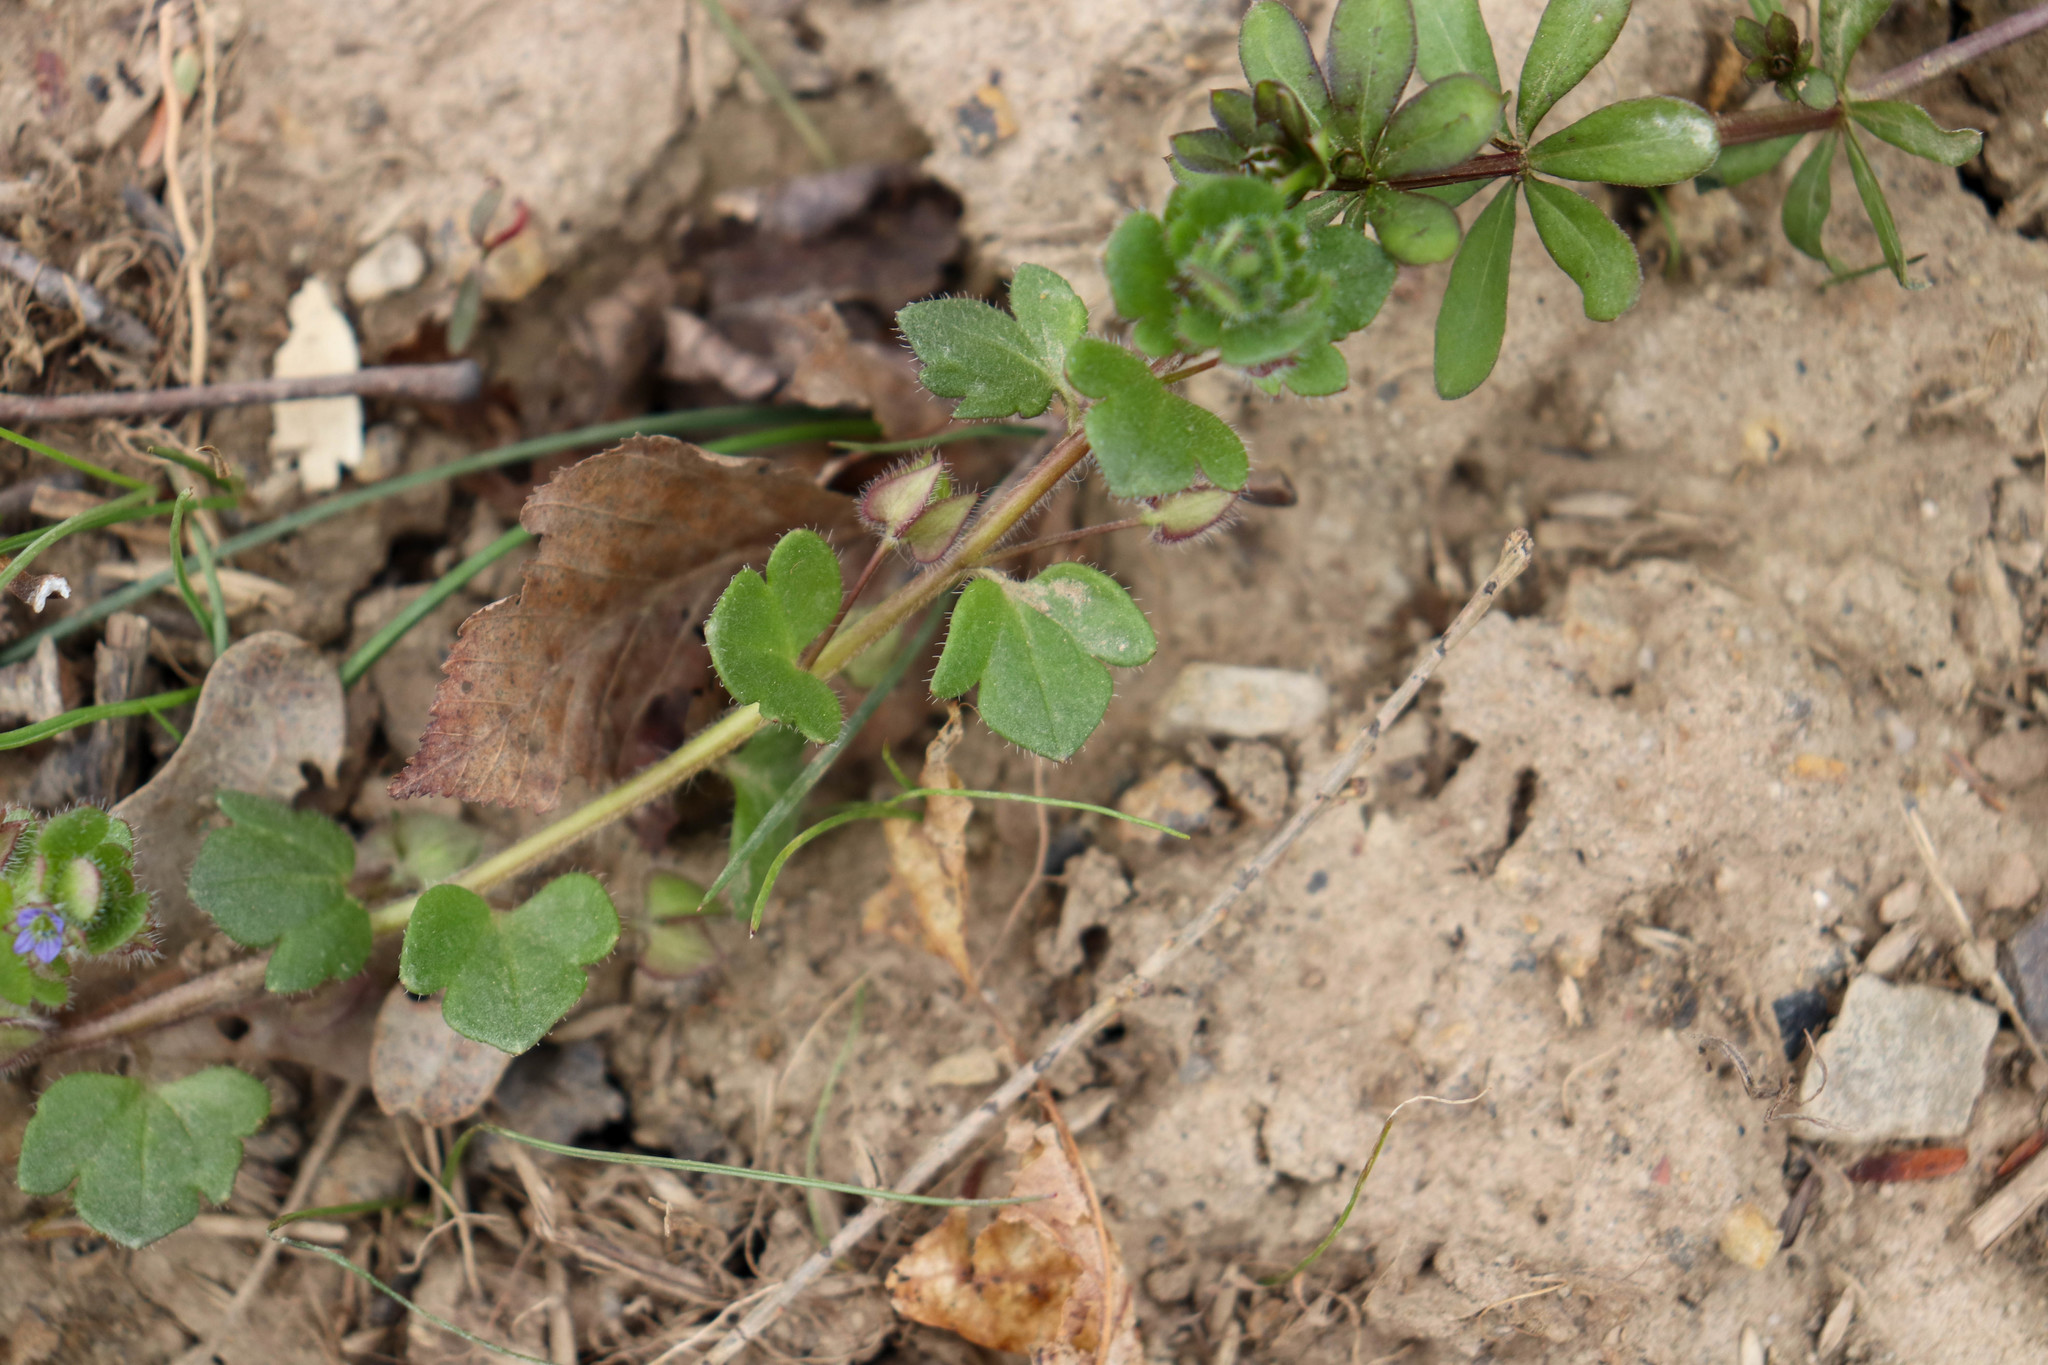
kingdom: Plantae
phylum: Tracheophyta
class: Magnoliopsida
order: Lamiales
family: Plantaginaceae
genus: Veronica
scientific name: Veronica hederifolia
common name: Ivy-leaved speedwell
